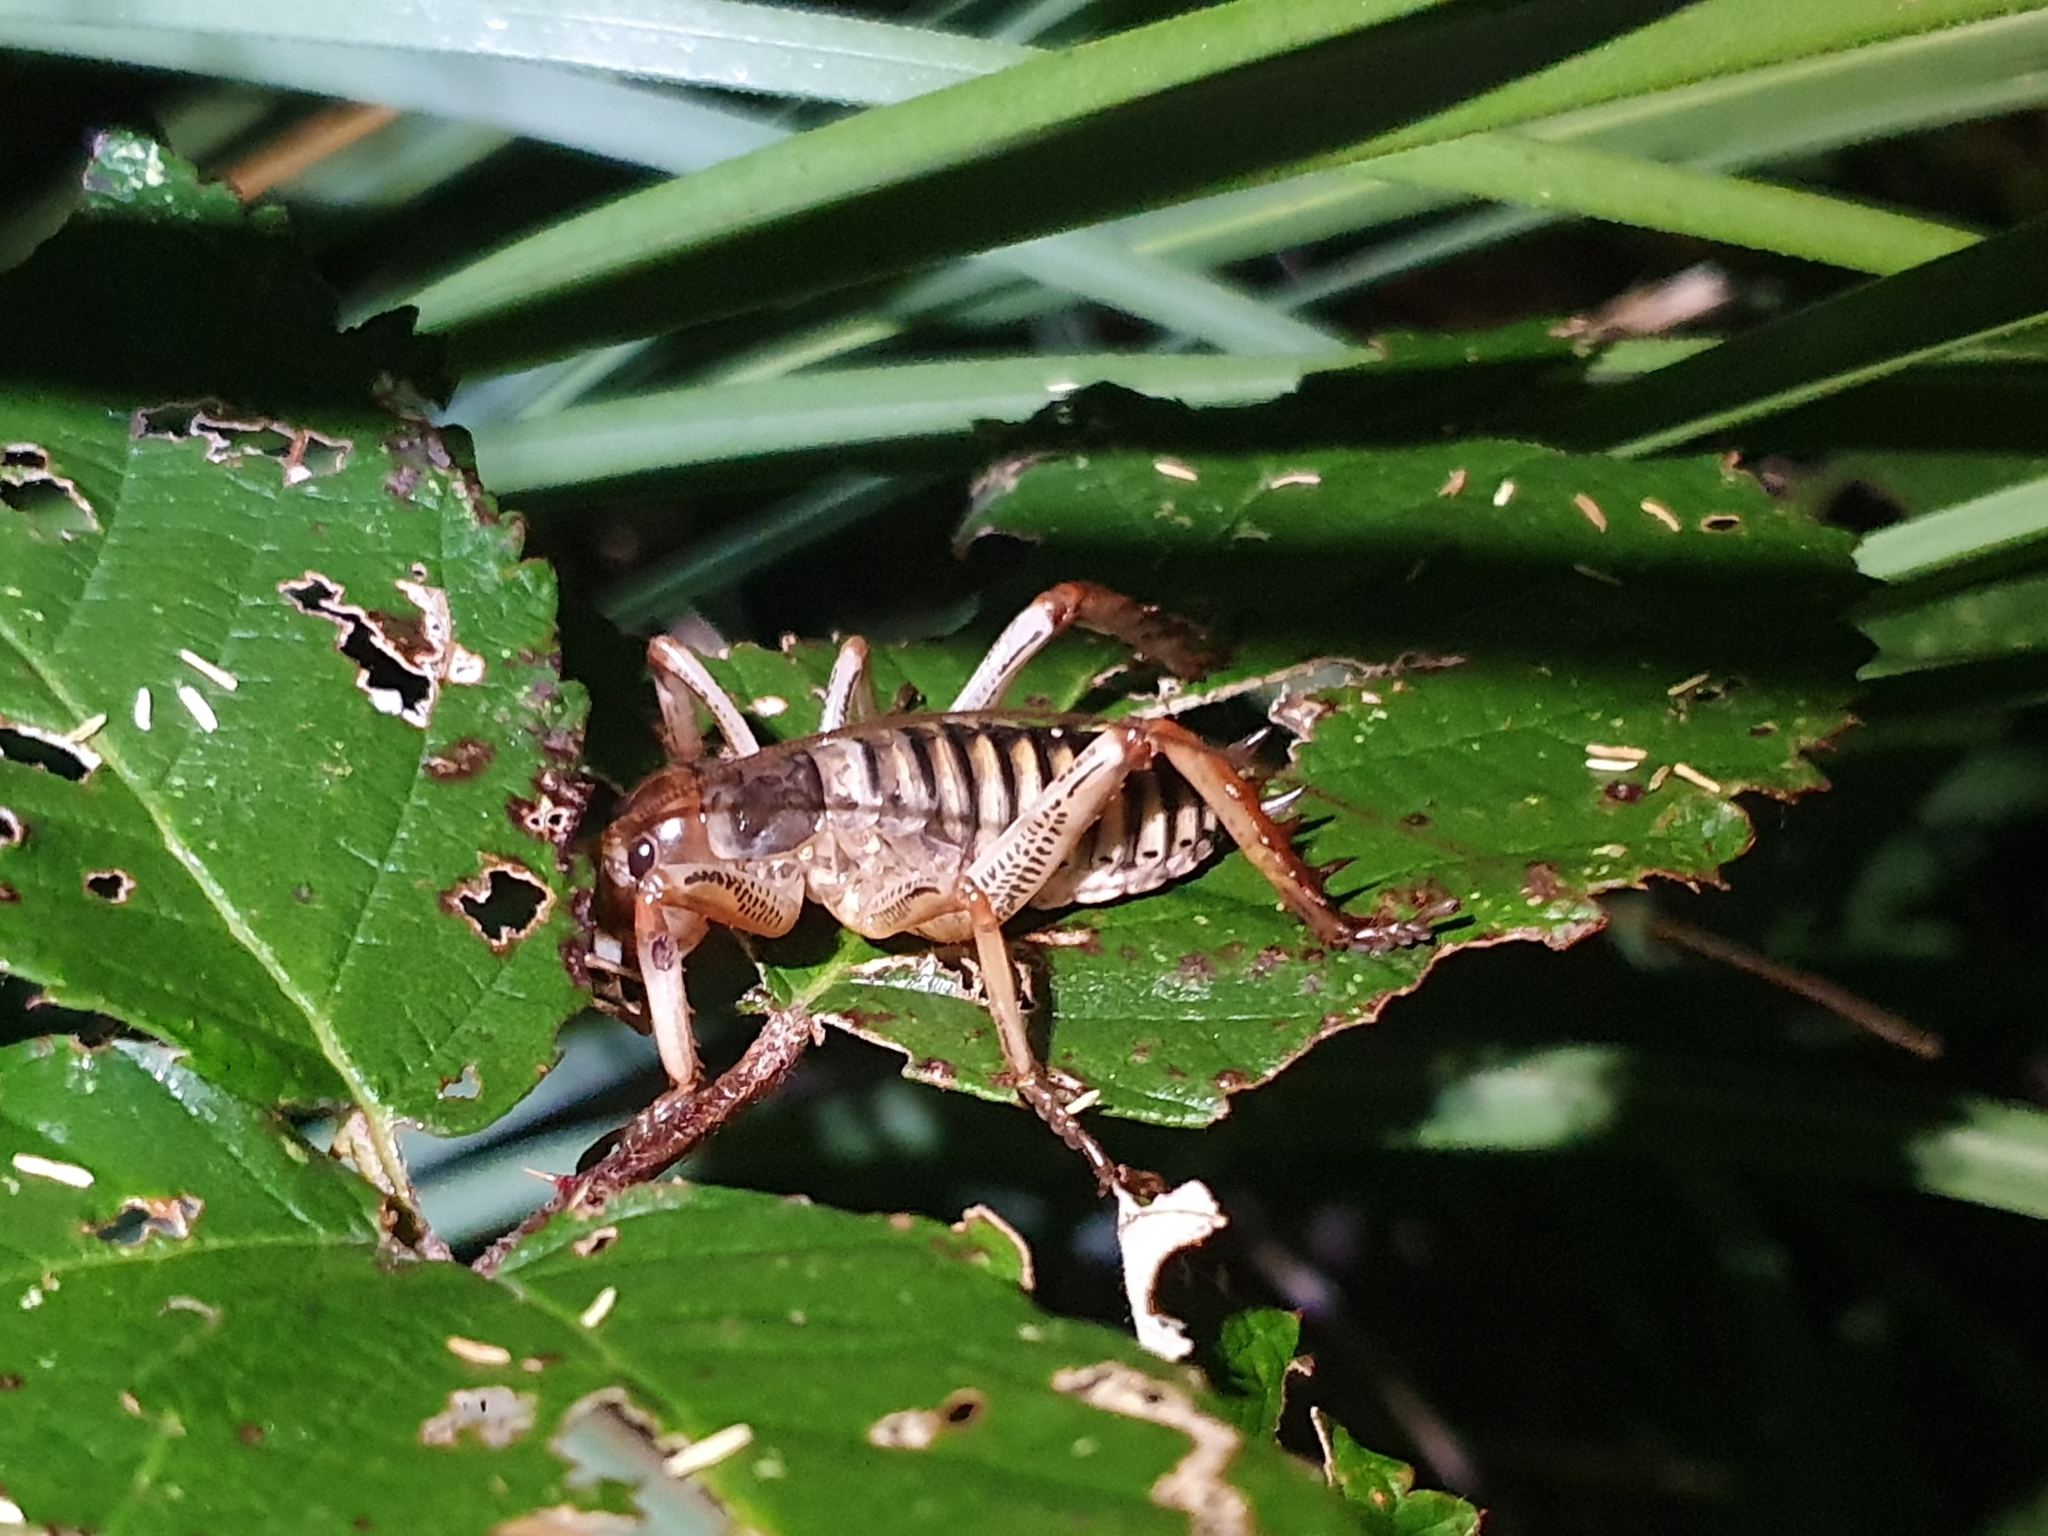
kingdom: Animalia
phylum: Arthropoda
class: Insecta
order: Orthoptera
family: Anostostomatidae
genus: Hemideina
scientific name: Hemideina crassidens
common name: Wellington tree weta
